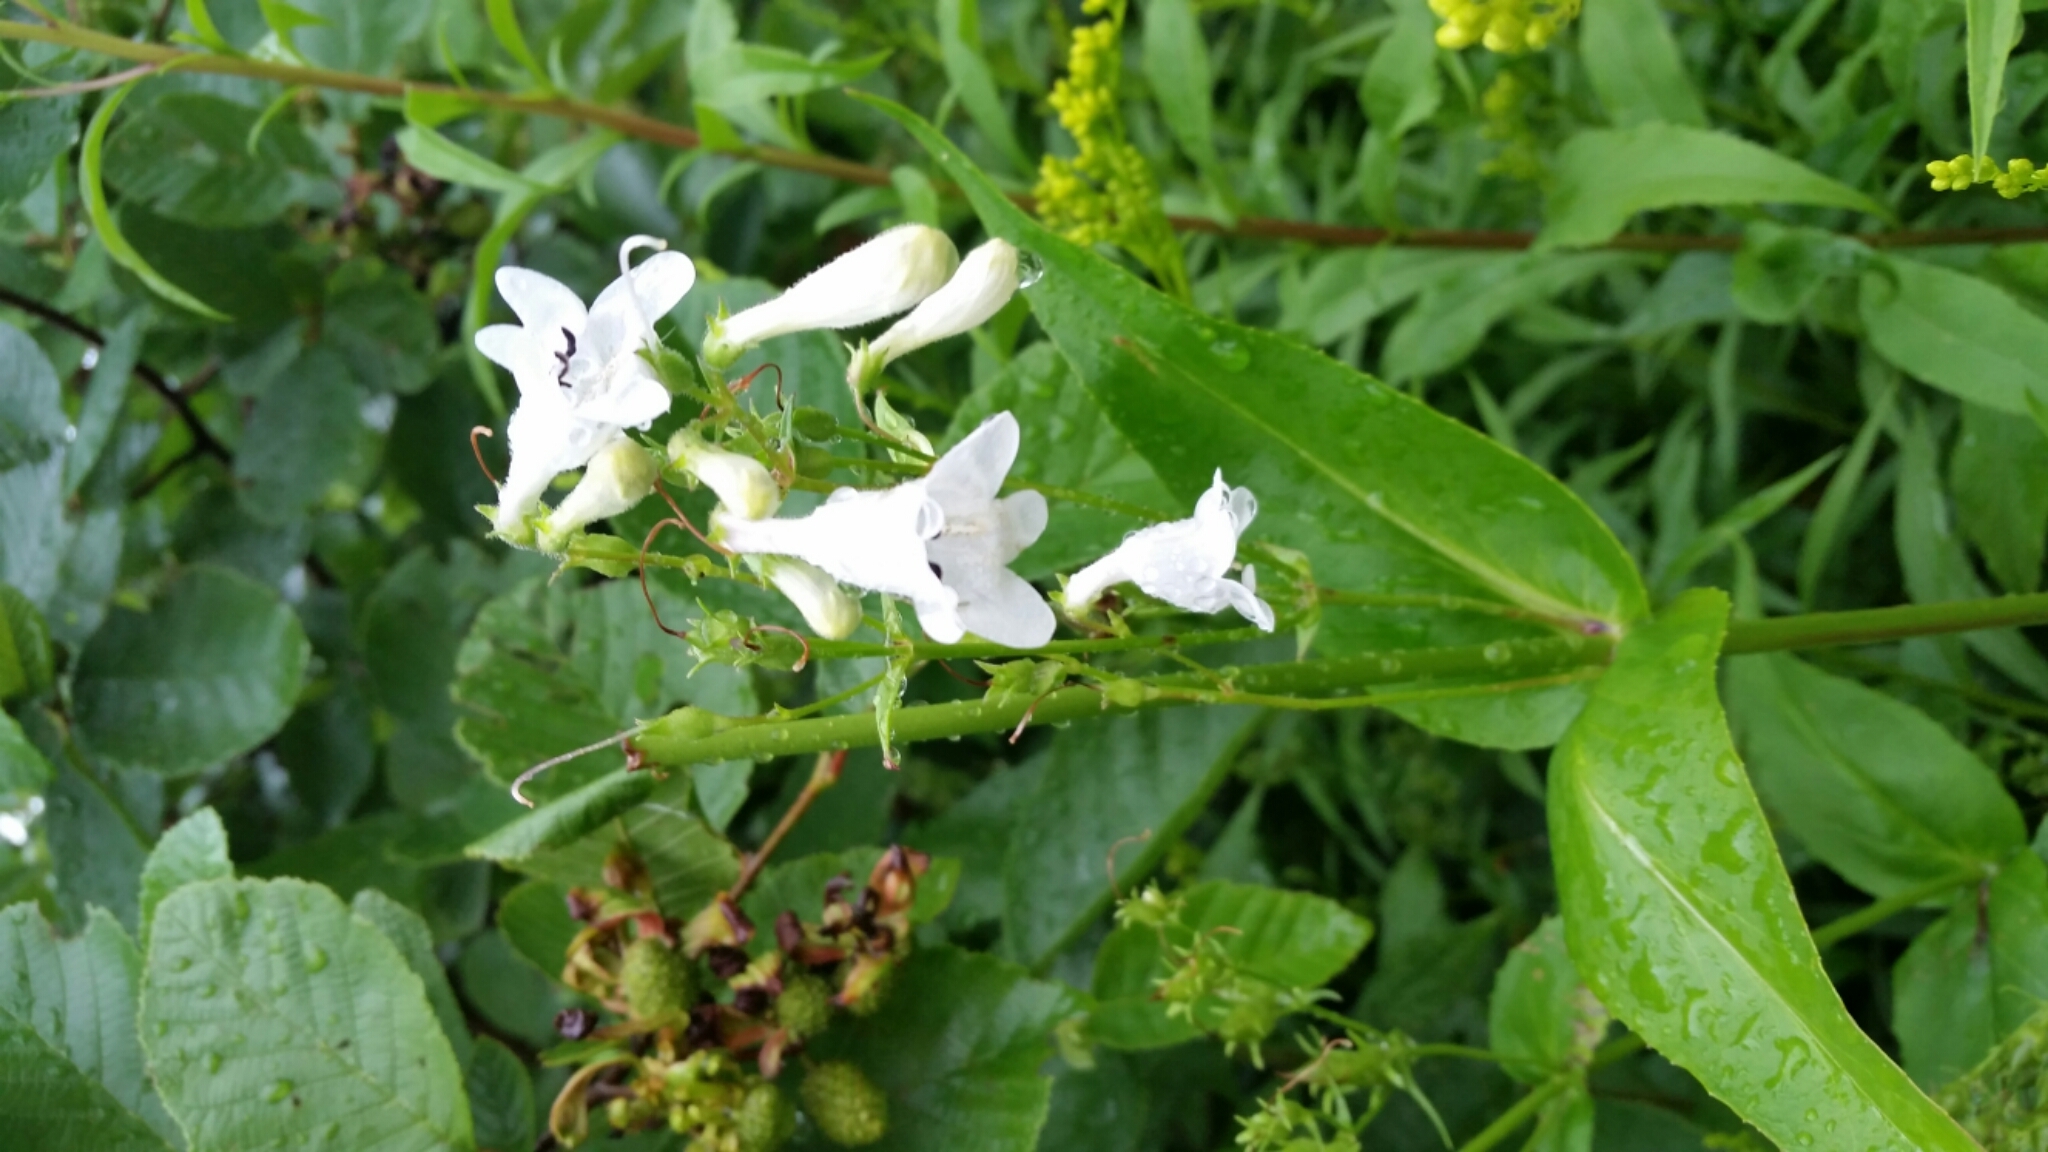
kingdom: Plantae
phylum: Tracheophyta
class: Magnoliopsida
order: Lamiales
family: Plantaginaceae
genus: Penstemon
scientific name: Penstemon digitalis
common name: Foxglove beardtongue
